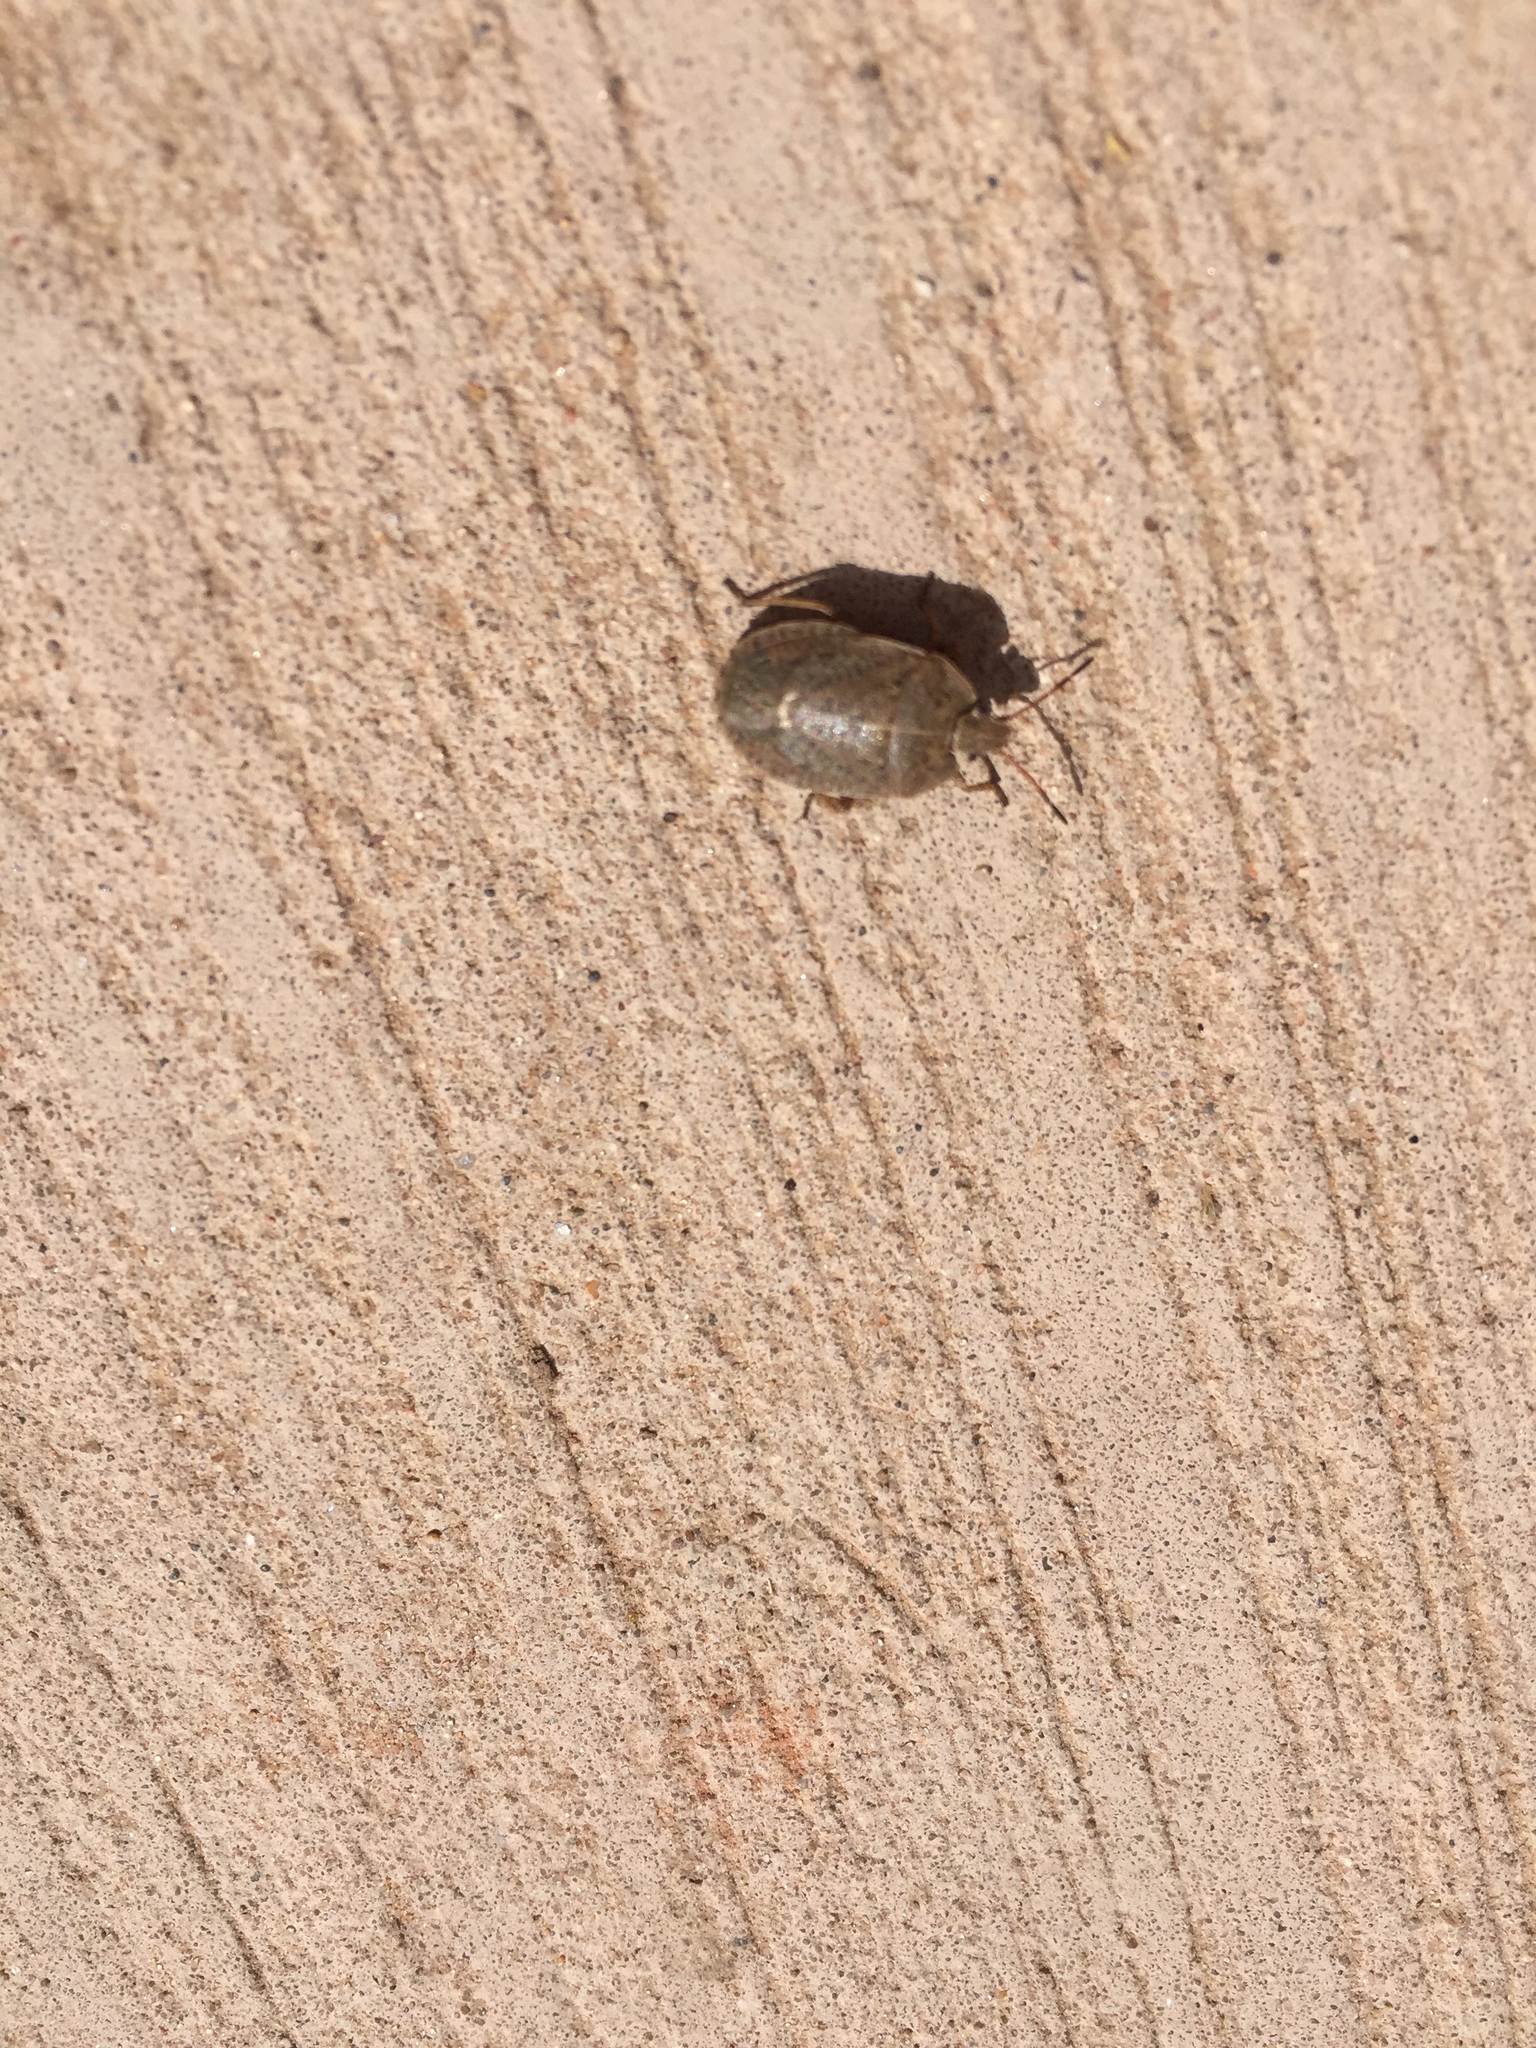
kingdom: Animalia
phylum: Arthropoda
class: Insecta
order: Hemiptera
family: Pentatomidae
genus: Menecles
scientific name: Menecles insertus
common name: Elf shoe stink bug
